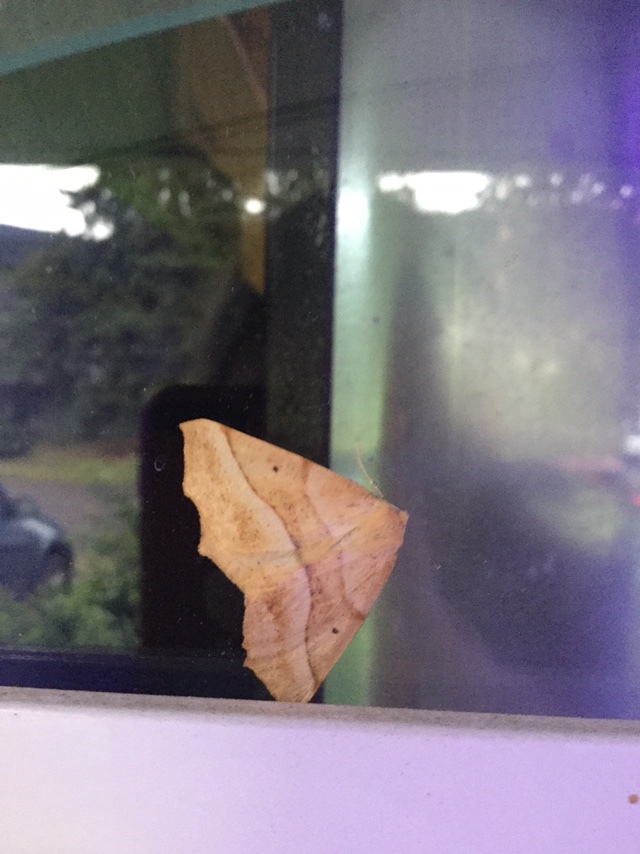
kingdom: Animalia
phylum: Arthropoda
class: Insecta
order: Lepidoptera
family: Geometridae
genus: Synaxis
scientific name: Synaxis jubararia
